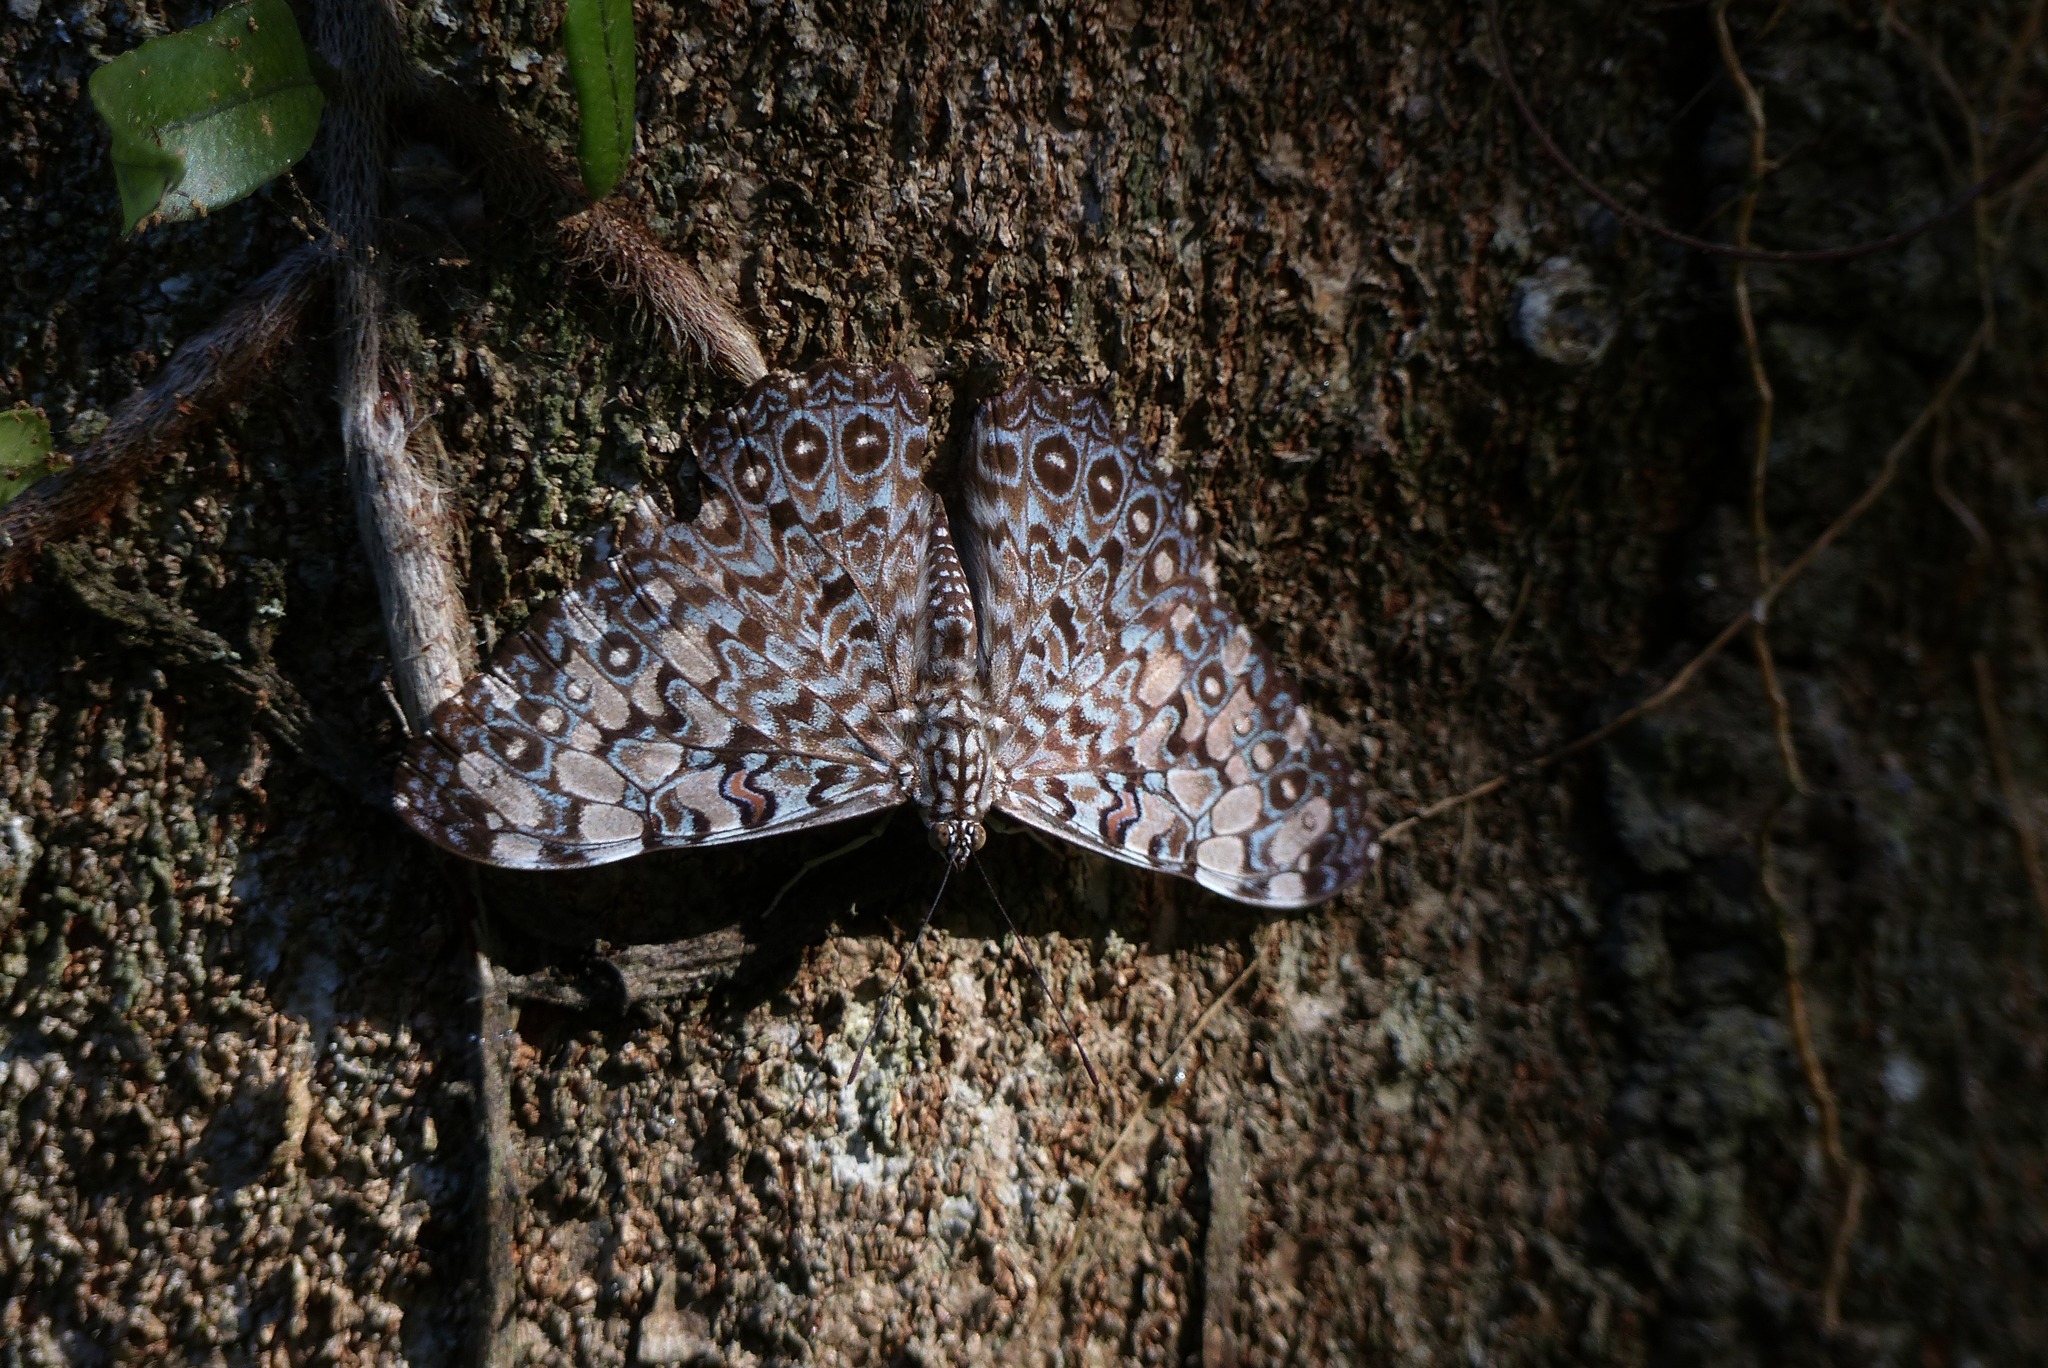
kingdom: Animalia
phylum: Arthropoda
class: Insecta
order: Lepidoptera
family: Nymphalidae
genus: Hamadryas
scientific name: Hamadryas feronia
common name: Variable cracker
